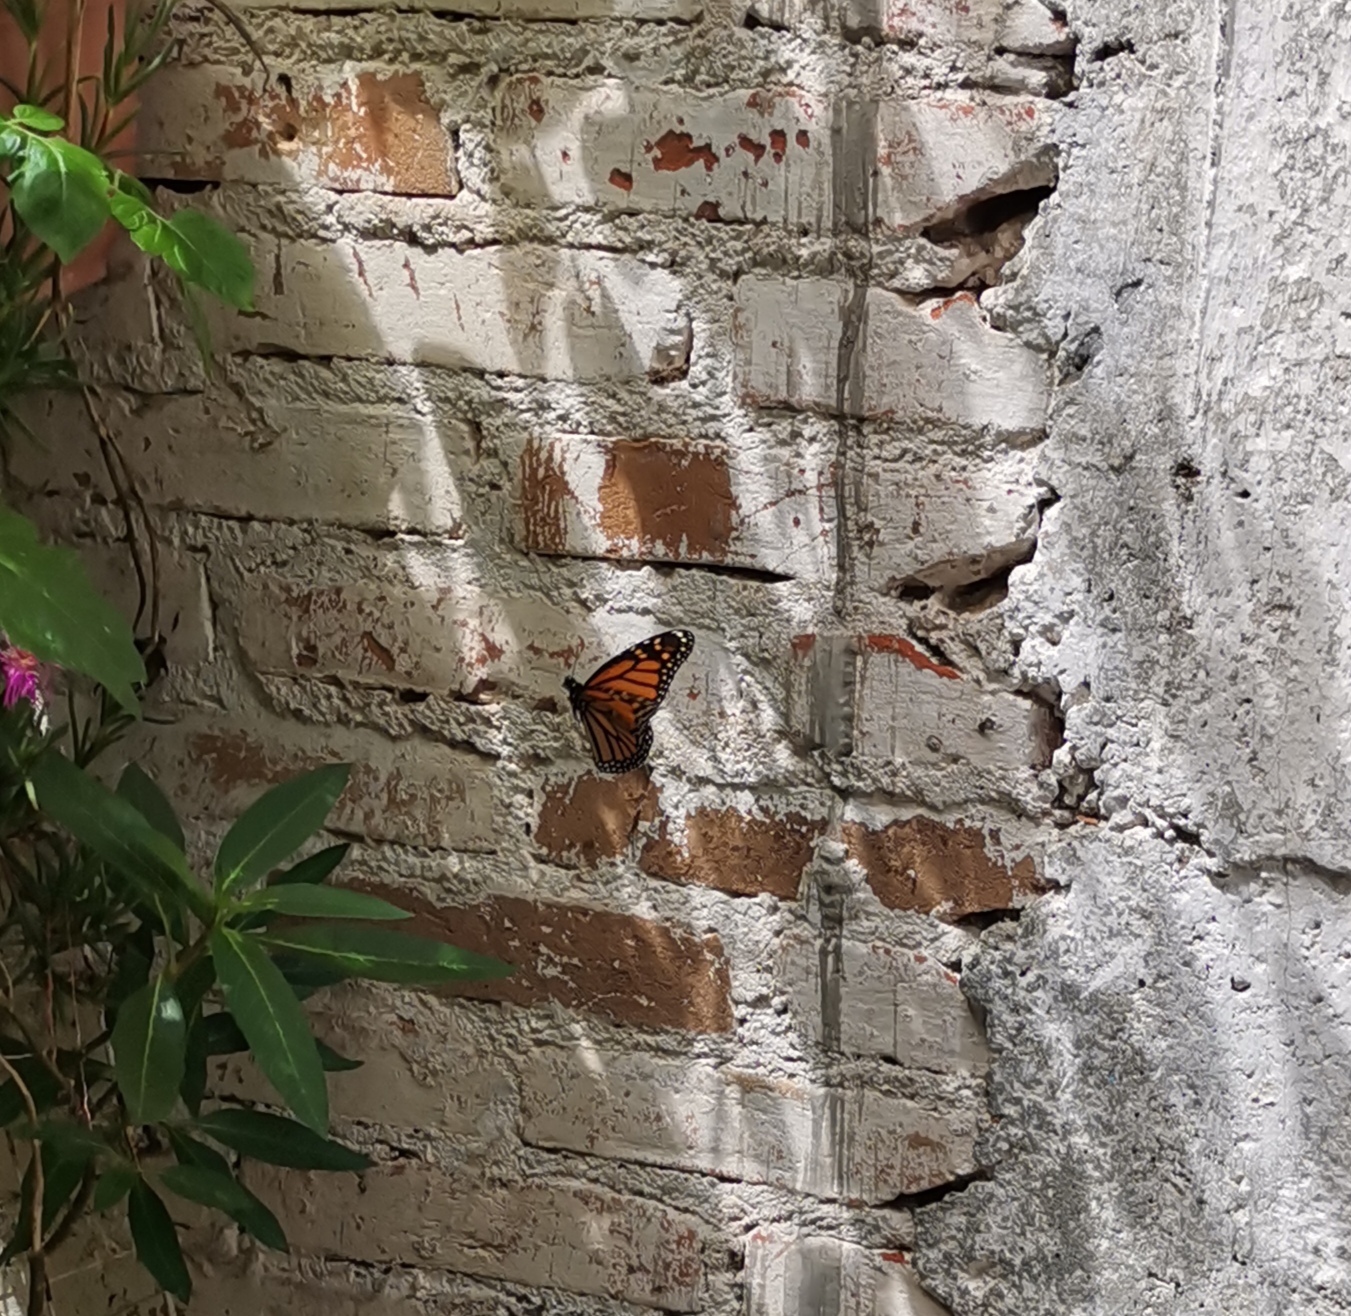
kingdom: Animalia
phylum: Arthropoda
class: Insecta
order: Lepidoptera
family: Nymphalidae
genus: Danaus
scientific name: Danaus plexippus
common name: Monarch
